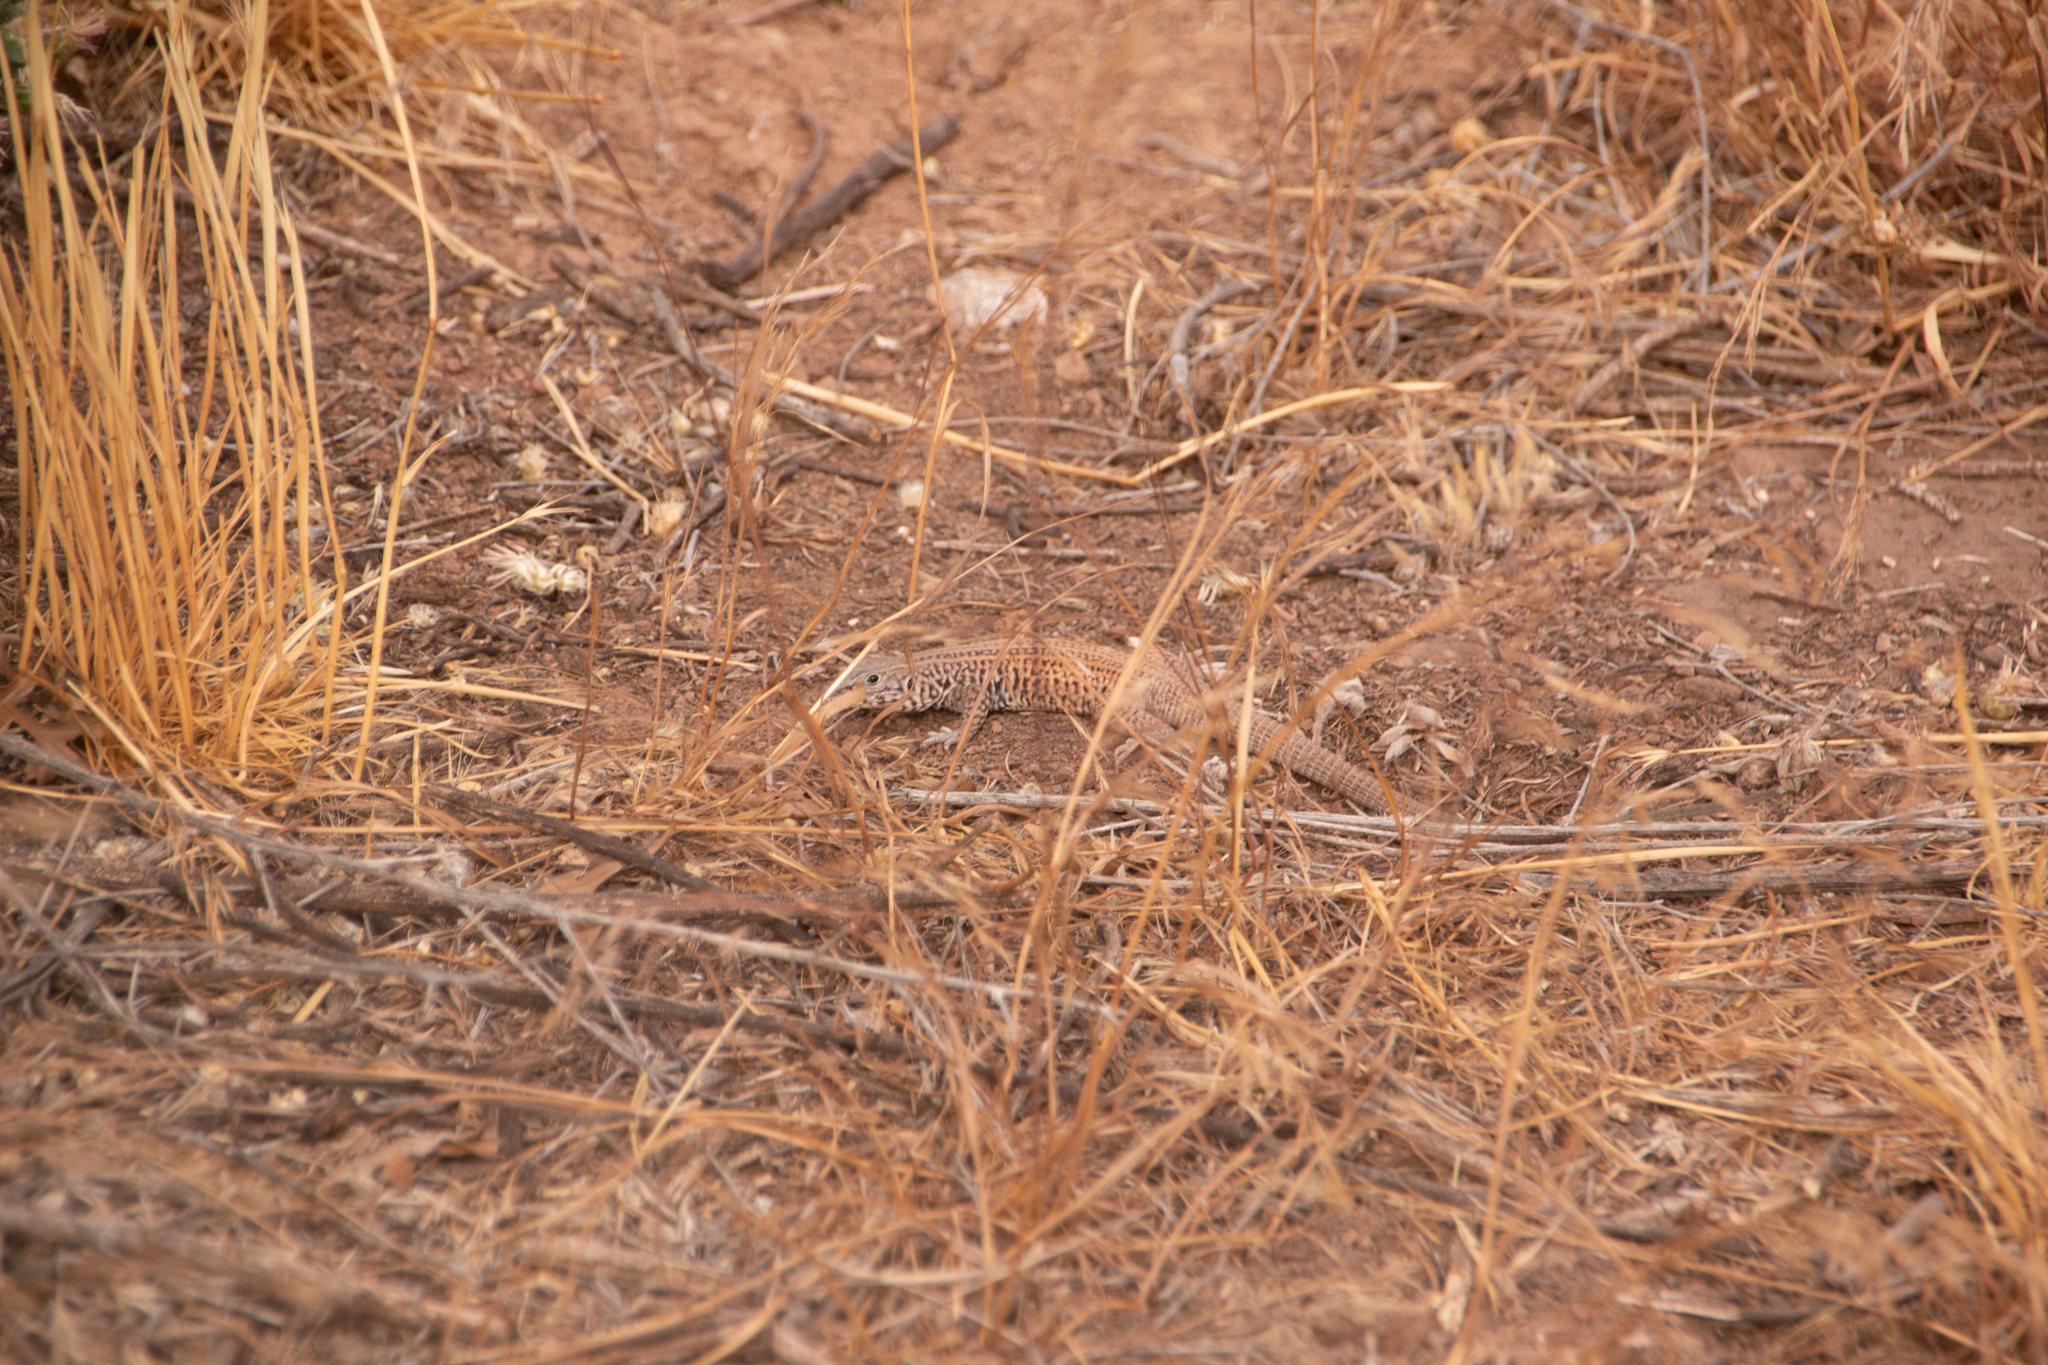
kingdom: Animalia
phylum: Chordata
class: Squamata
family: Teiidae
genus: Aspidoscelis
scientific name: Aspidoscelis tigris
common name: Tiger whiptail
